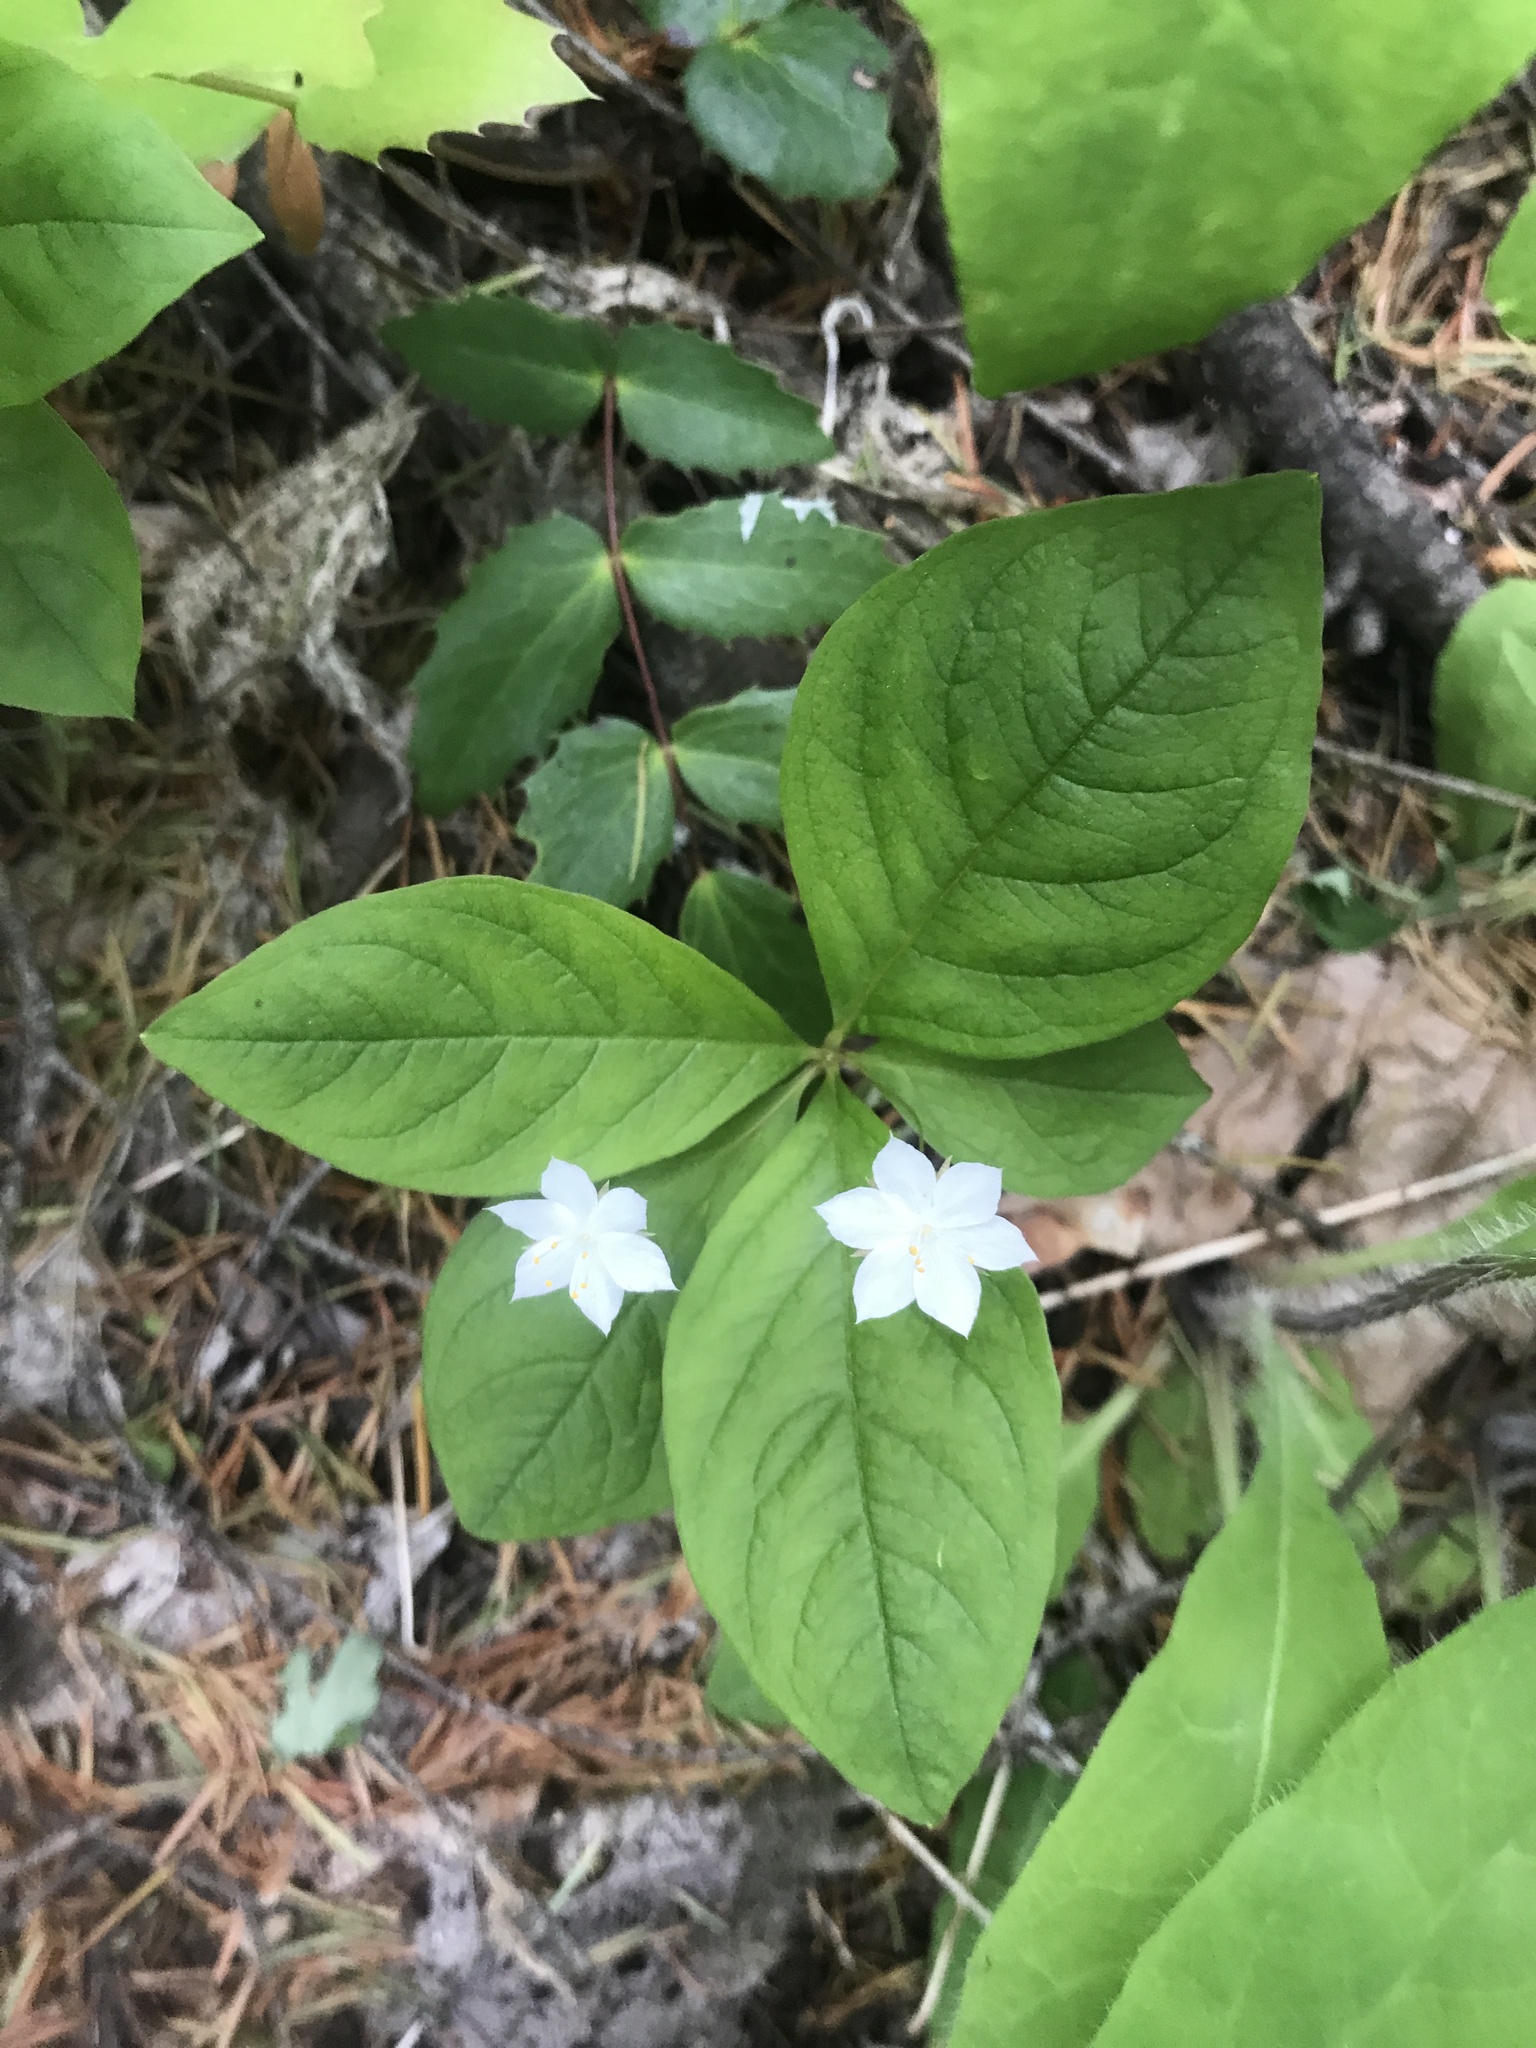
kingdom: Plantae
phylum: Tracheophyta
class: Magnoliopsida
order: Ericales
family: Primulaceae
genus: Lysimachia
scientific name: Lysimachia latifolia
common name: Pacific starflower
